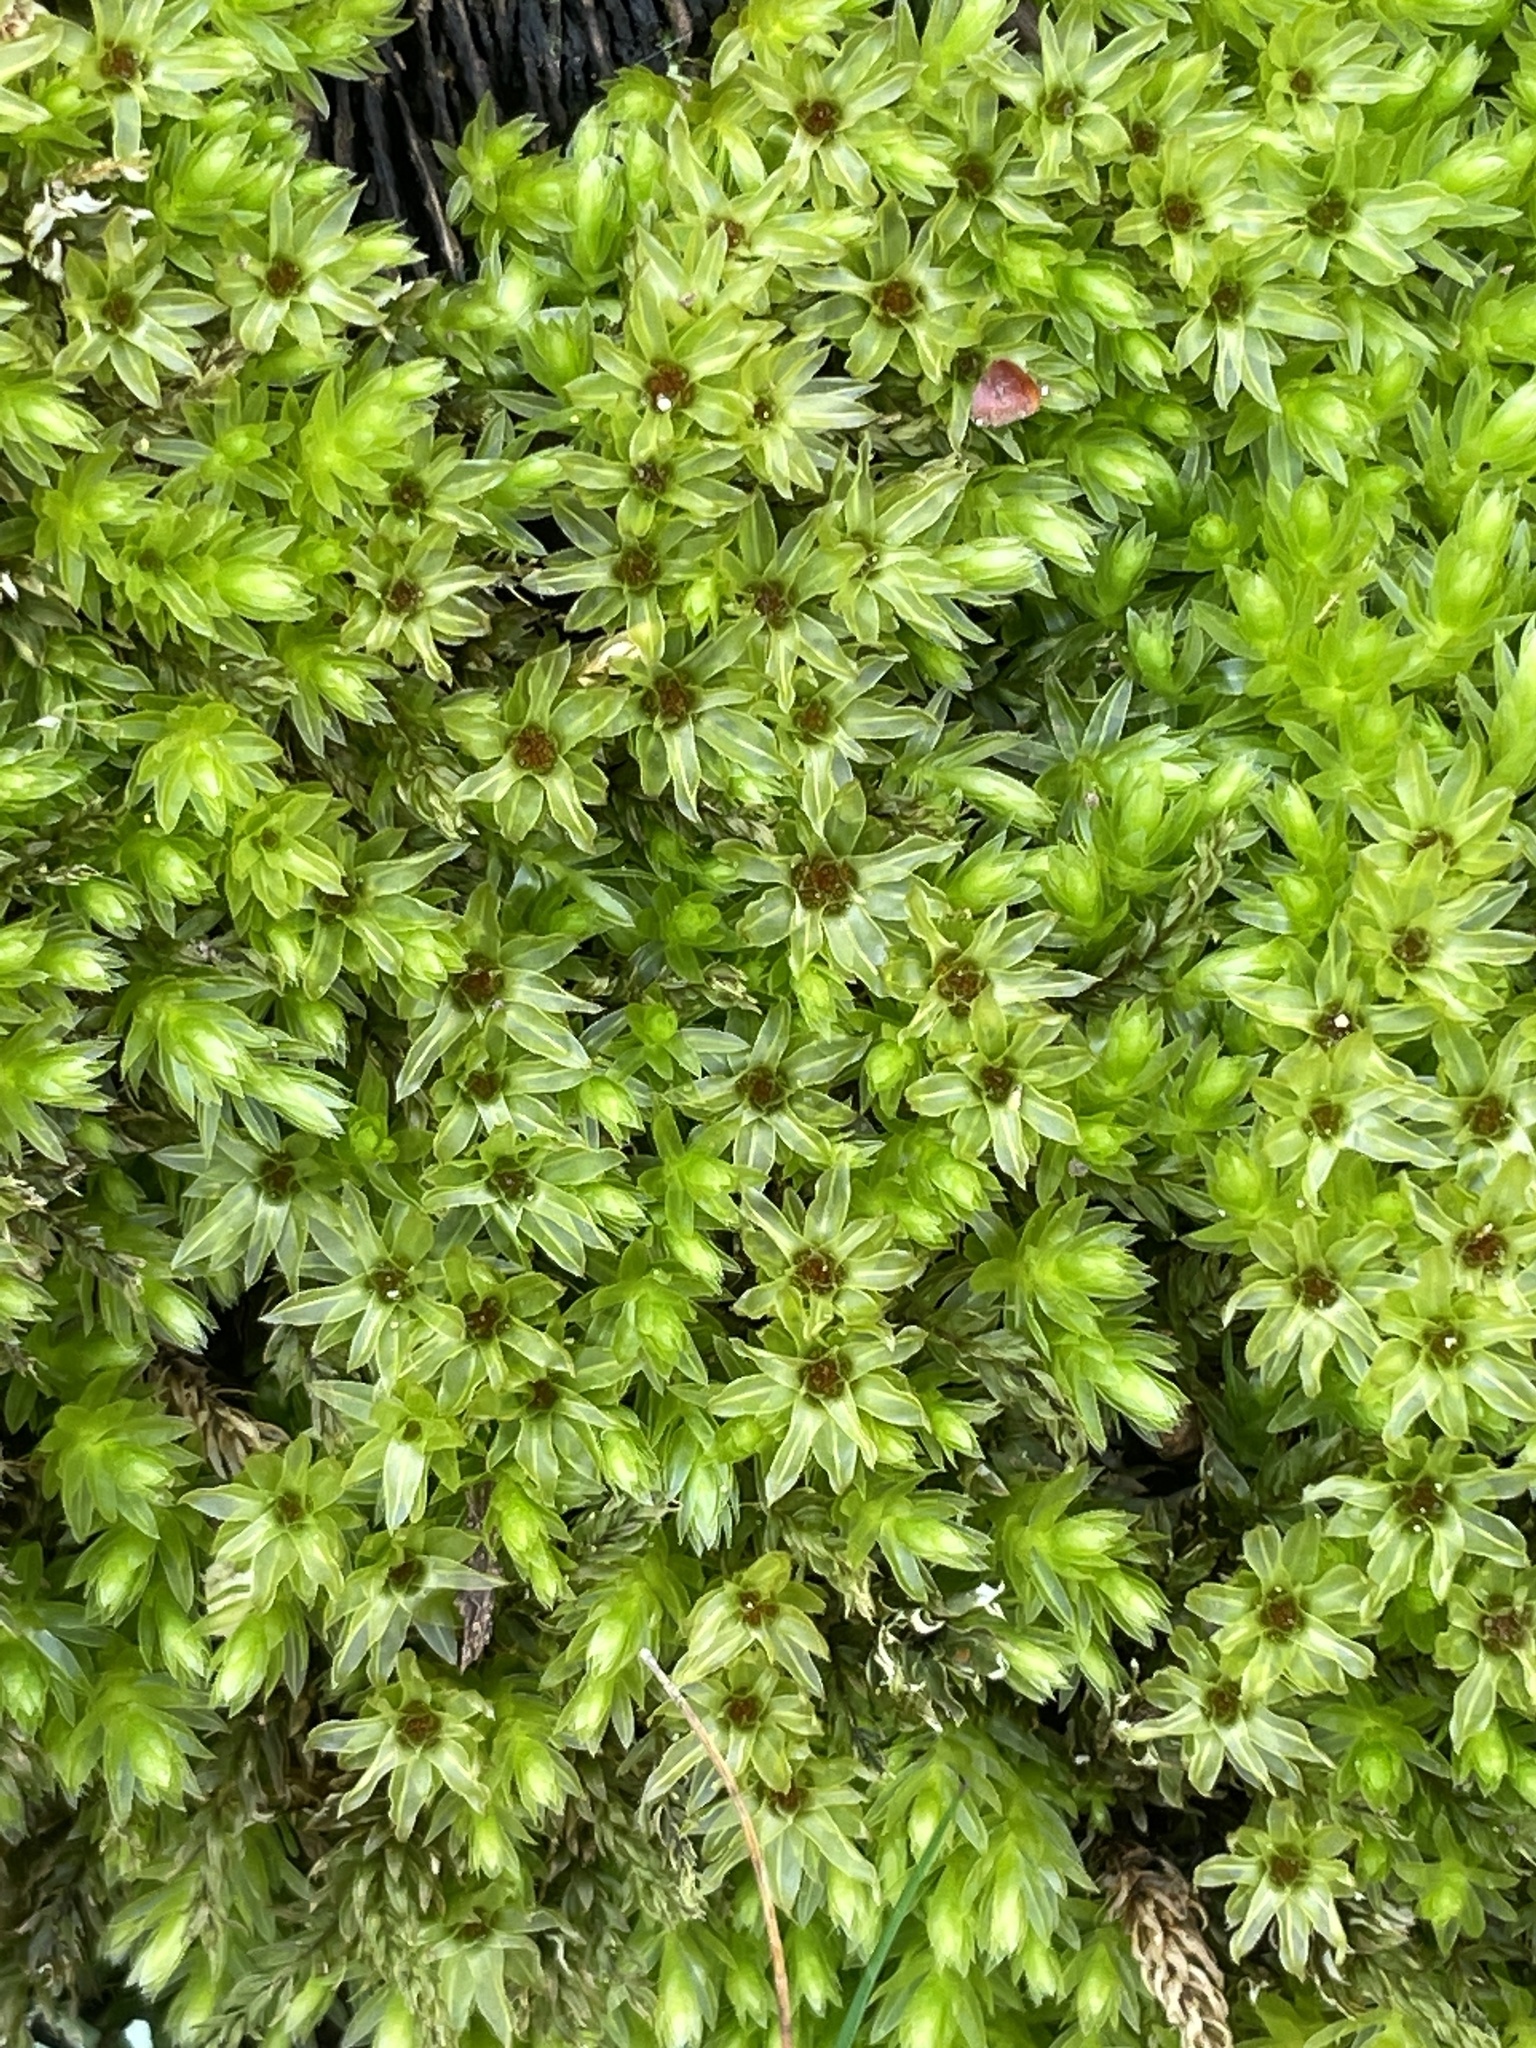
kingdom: Plantae
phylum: Bryophyta
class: Bryopsida
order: Bryales
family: Mniaceae
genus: Mnium
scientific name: Mnium hornum
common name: Swan's-neck leafy moss
